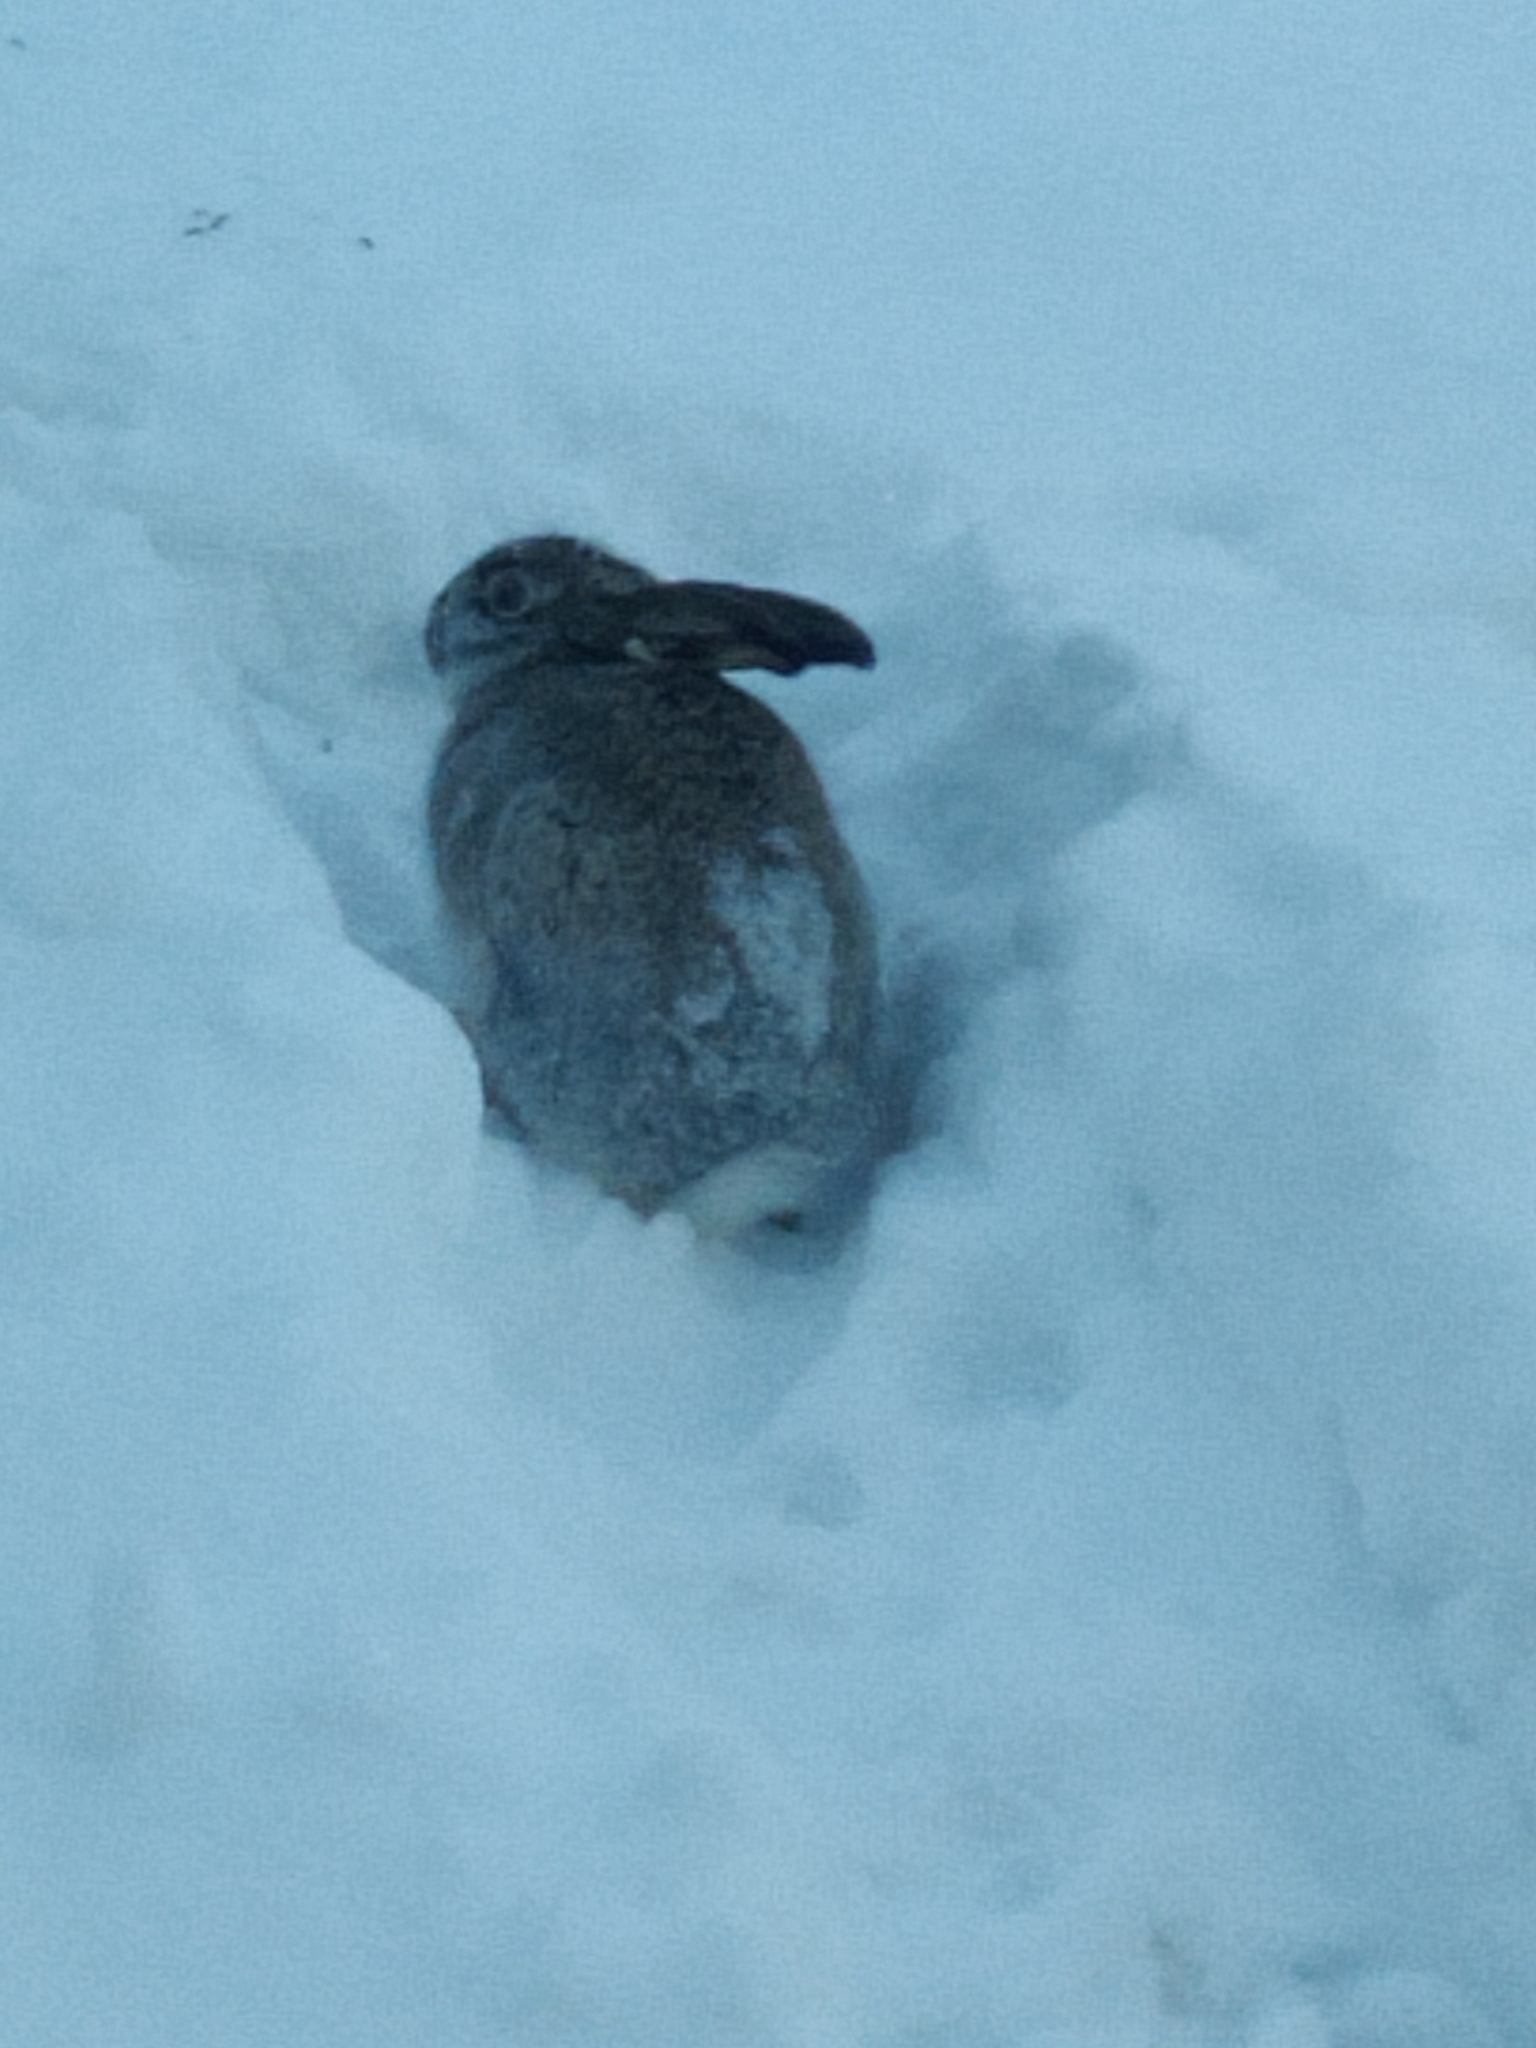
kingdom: Animalia
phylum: Chordata
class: Mammalia
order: Lagomorpha
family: Leporidae
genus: Lepus
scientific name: Lepus europaeus
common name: European hare
